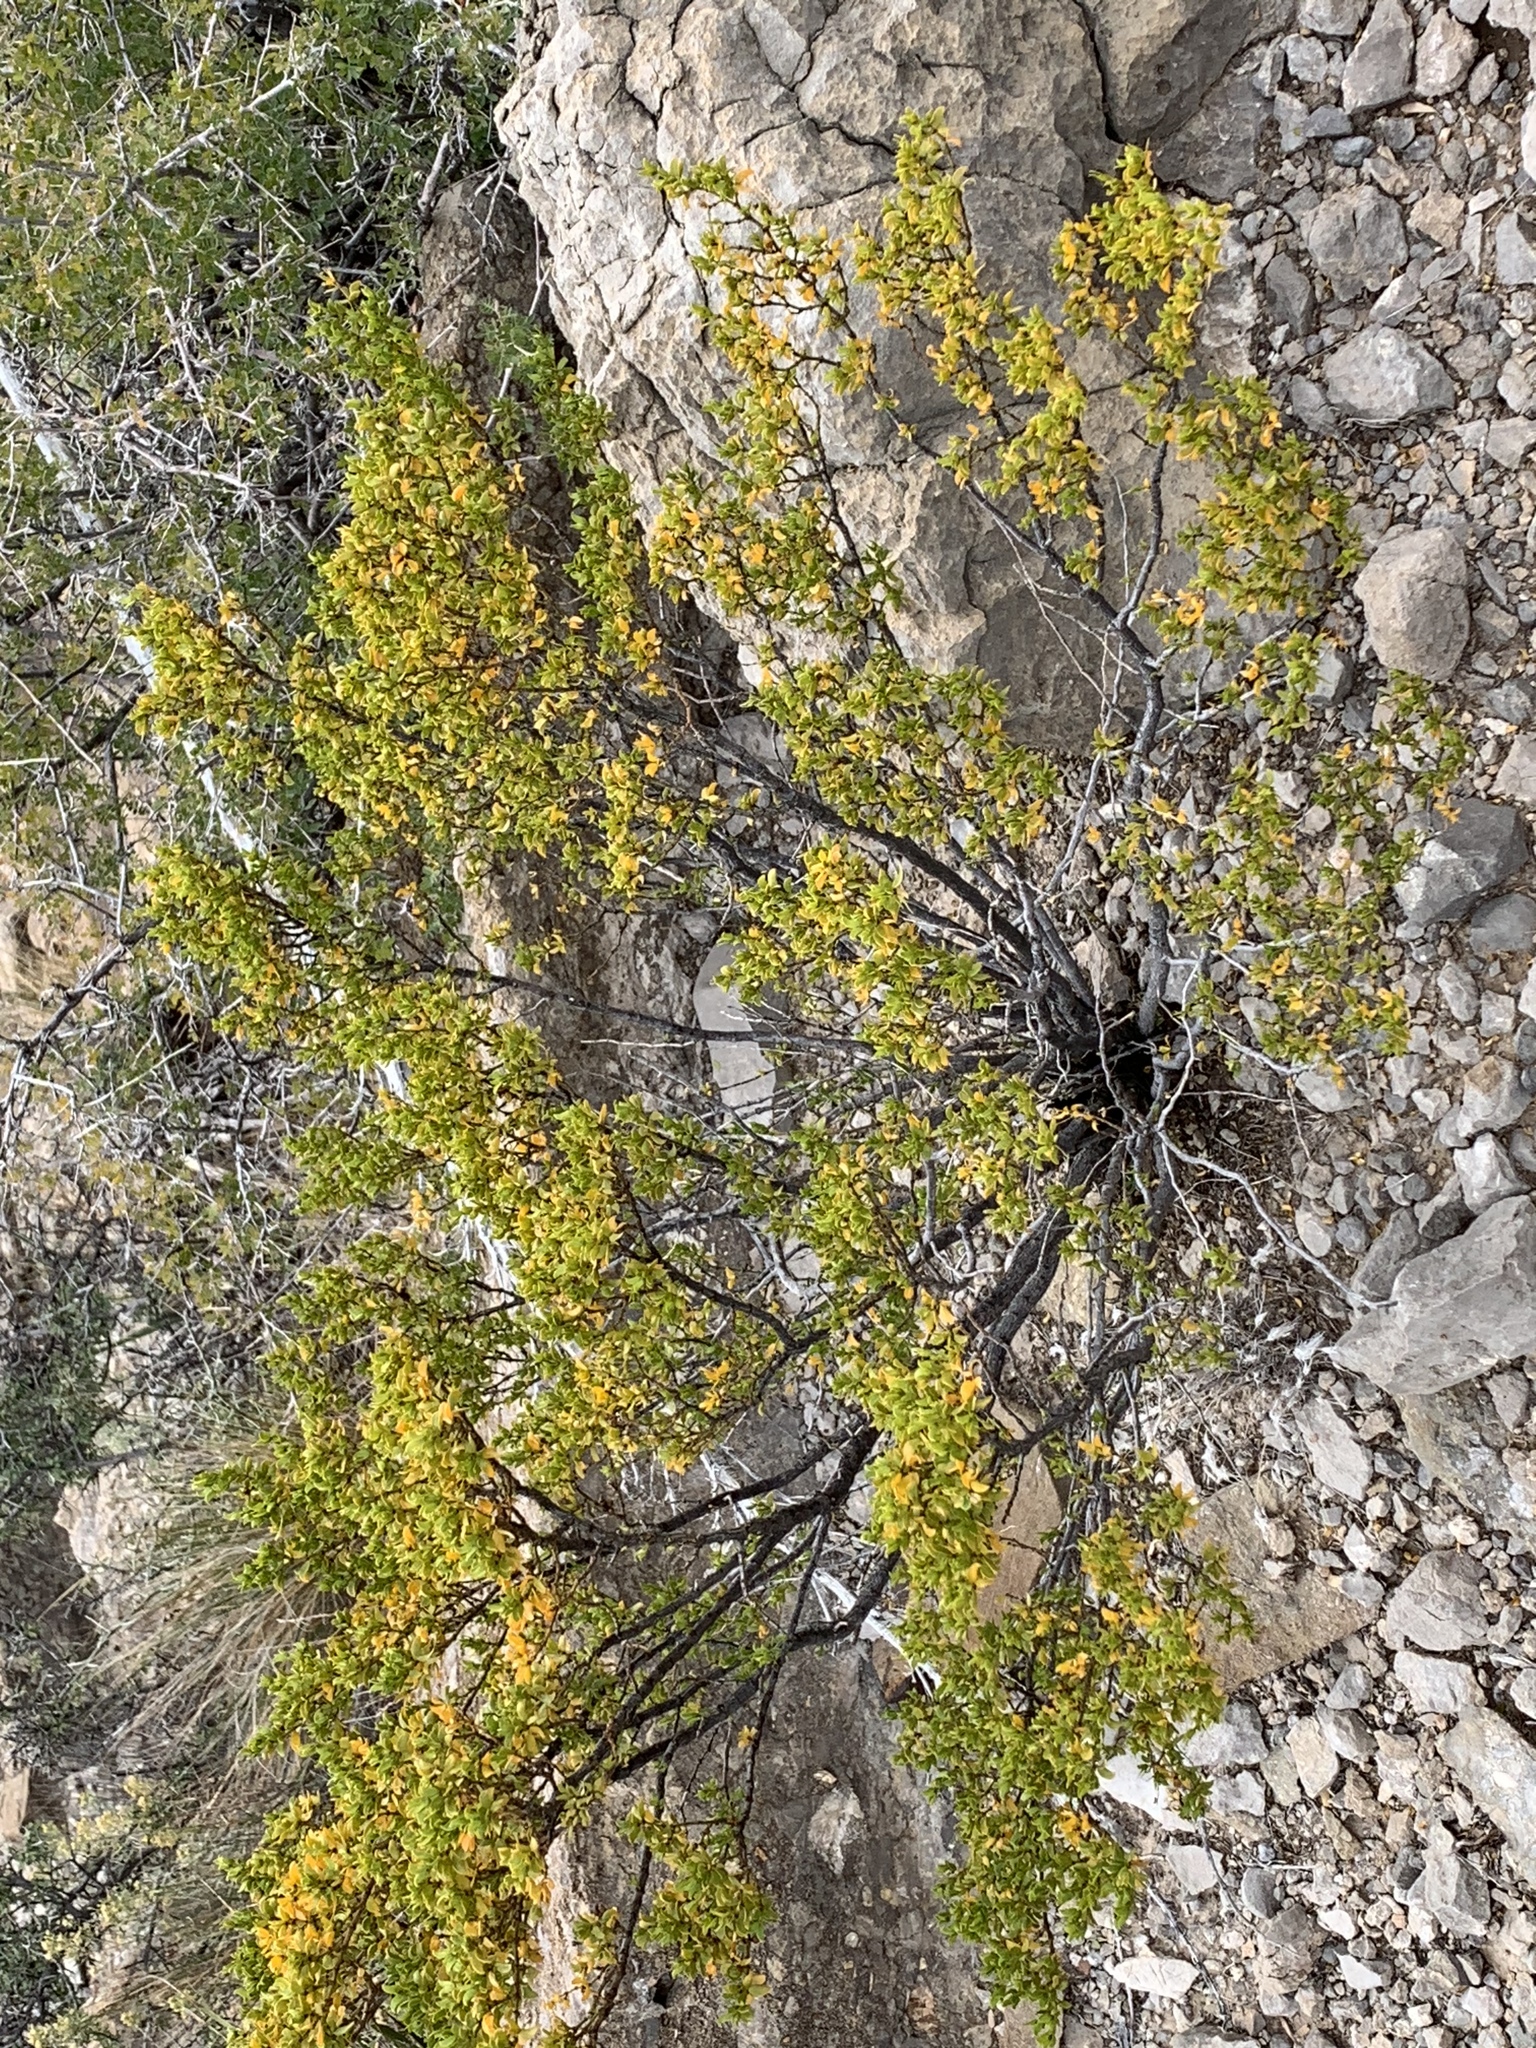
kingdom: Plantae
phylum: Tracheophyta
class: Magnoliopsida
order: Zygophyllales
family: Zygophyllaceae
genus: Larrea
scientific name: Larrea tridentata
